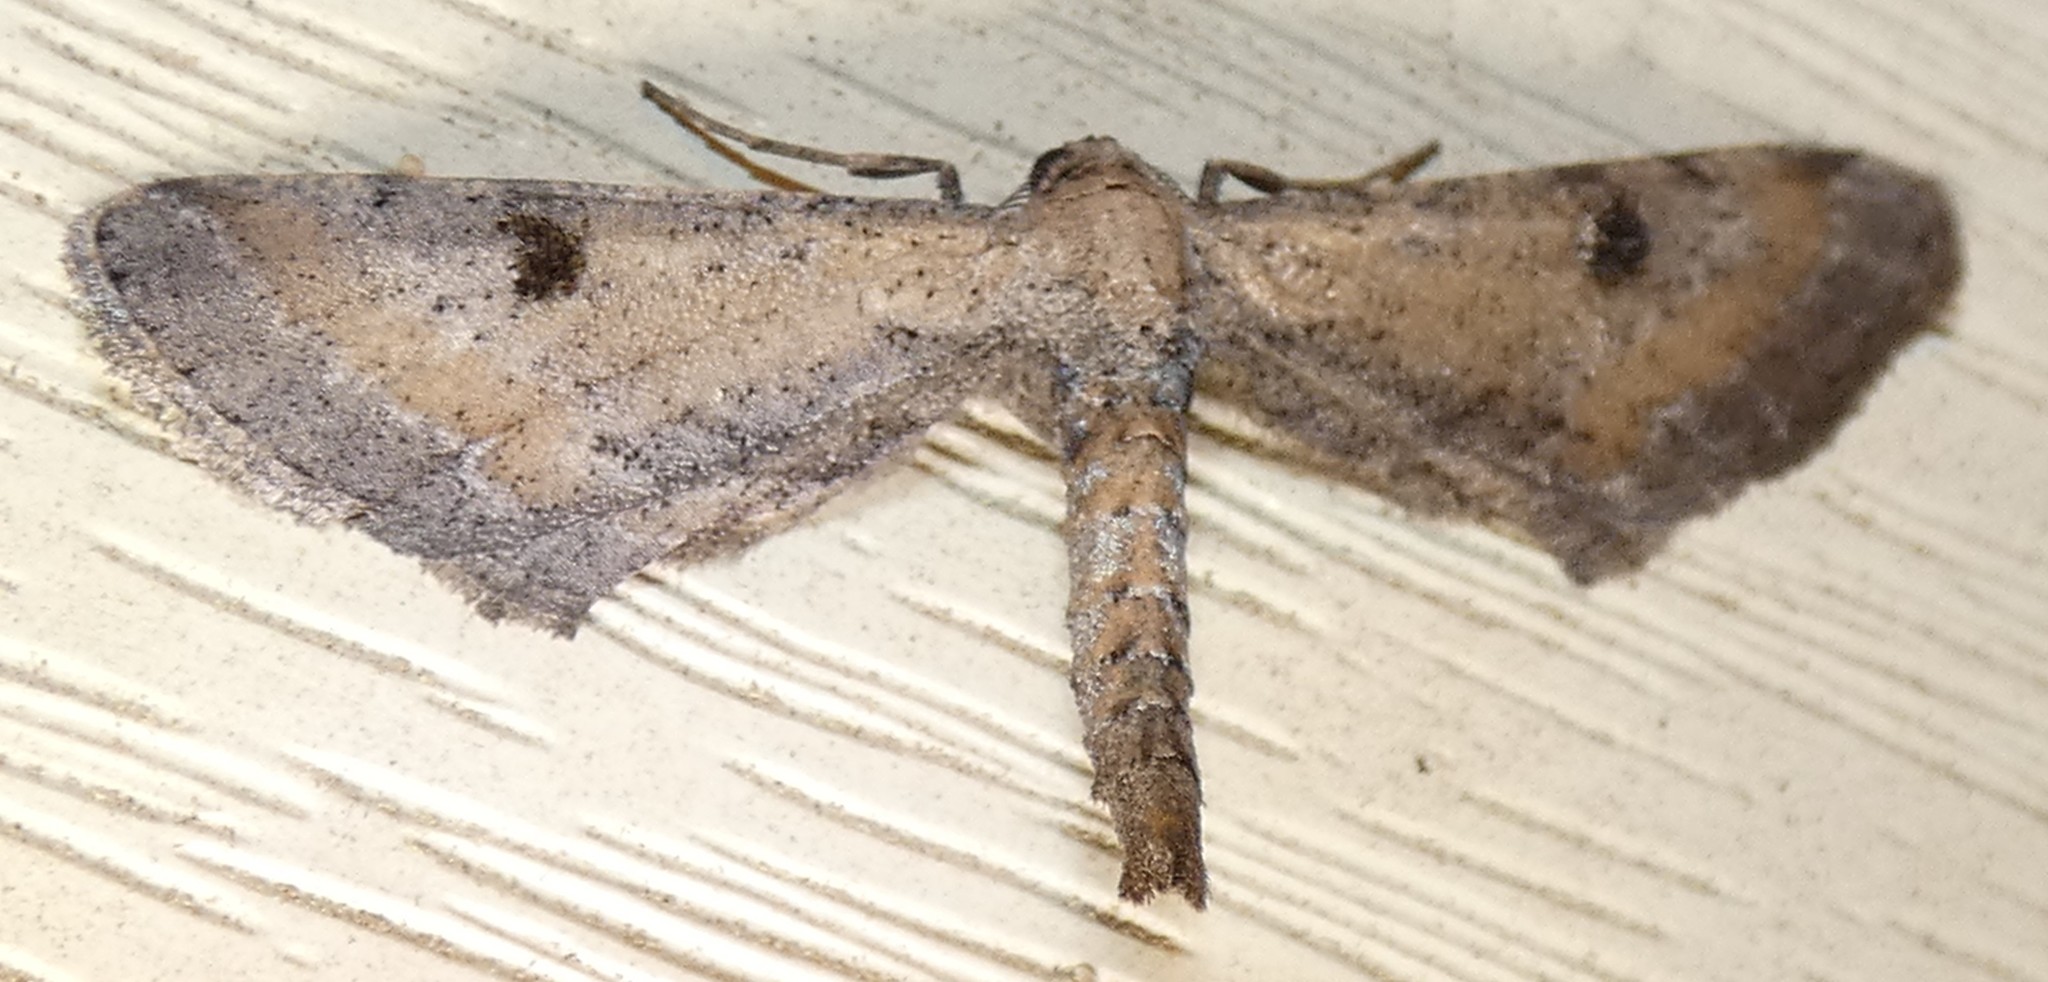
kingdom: Animalia
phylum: Arthropoda
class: Insecta
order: Lepidoptera
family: Geometridae
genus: Tornos
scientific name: Tornos scolopacinaria
